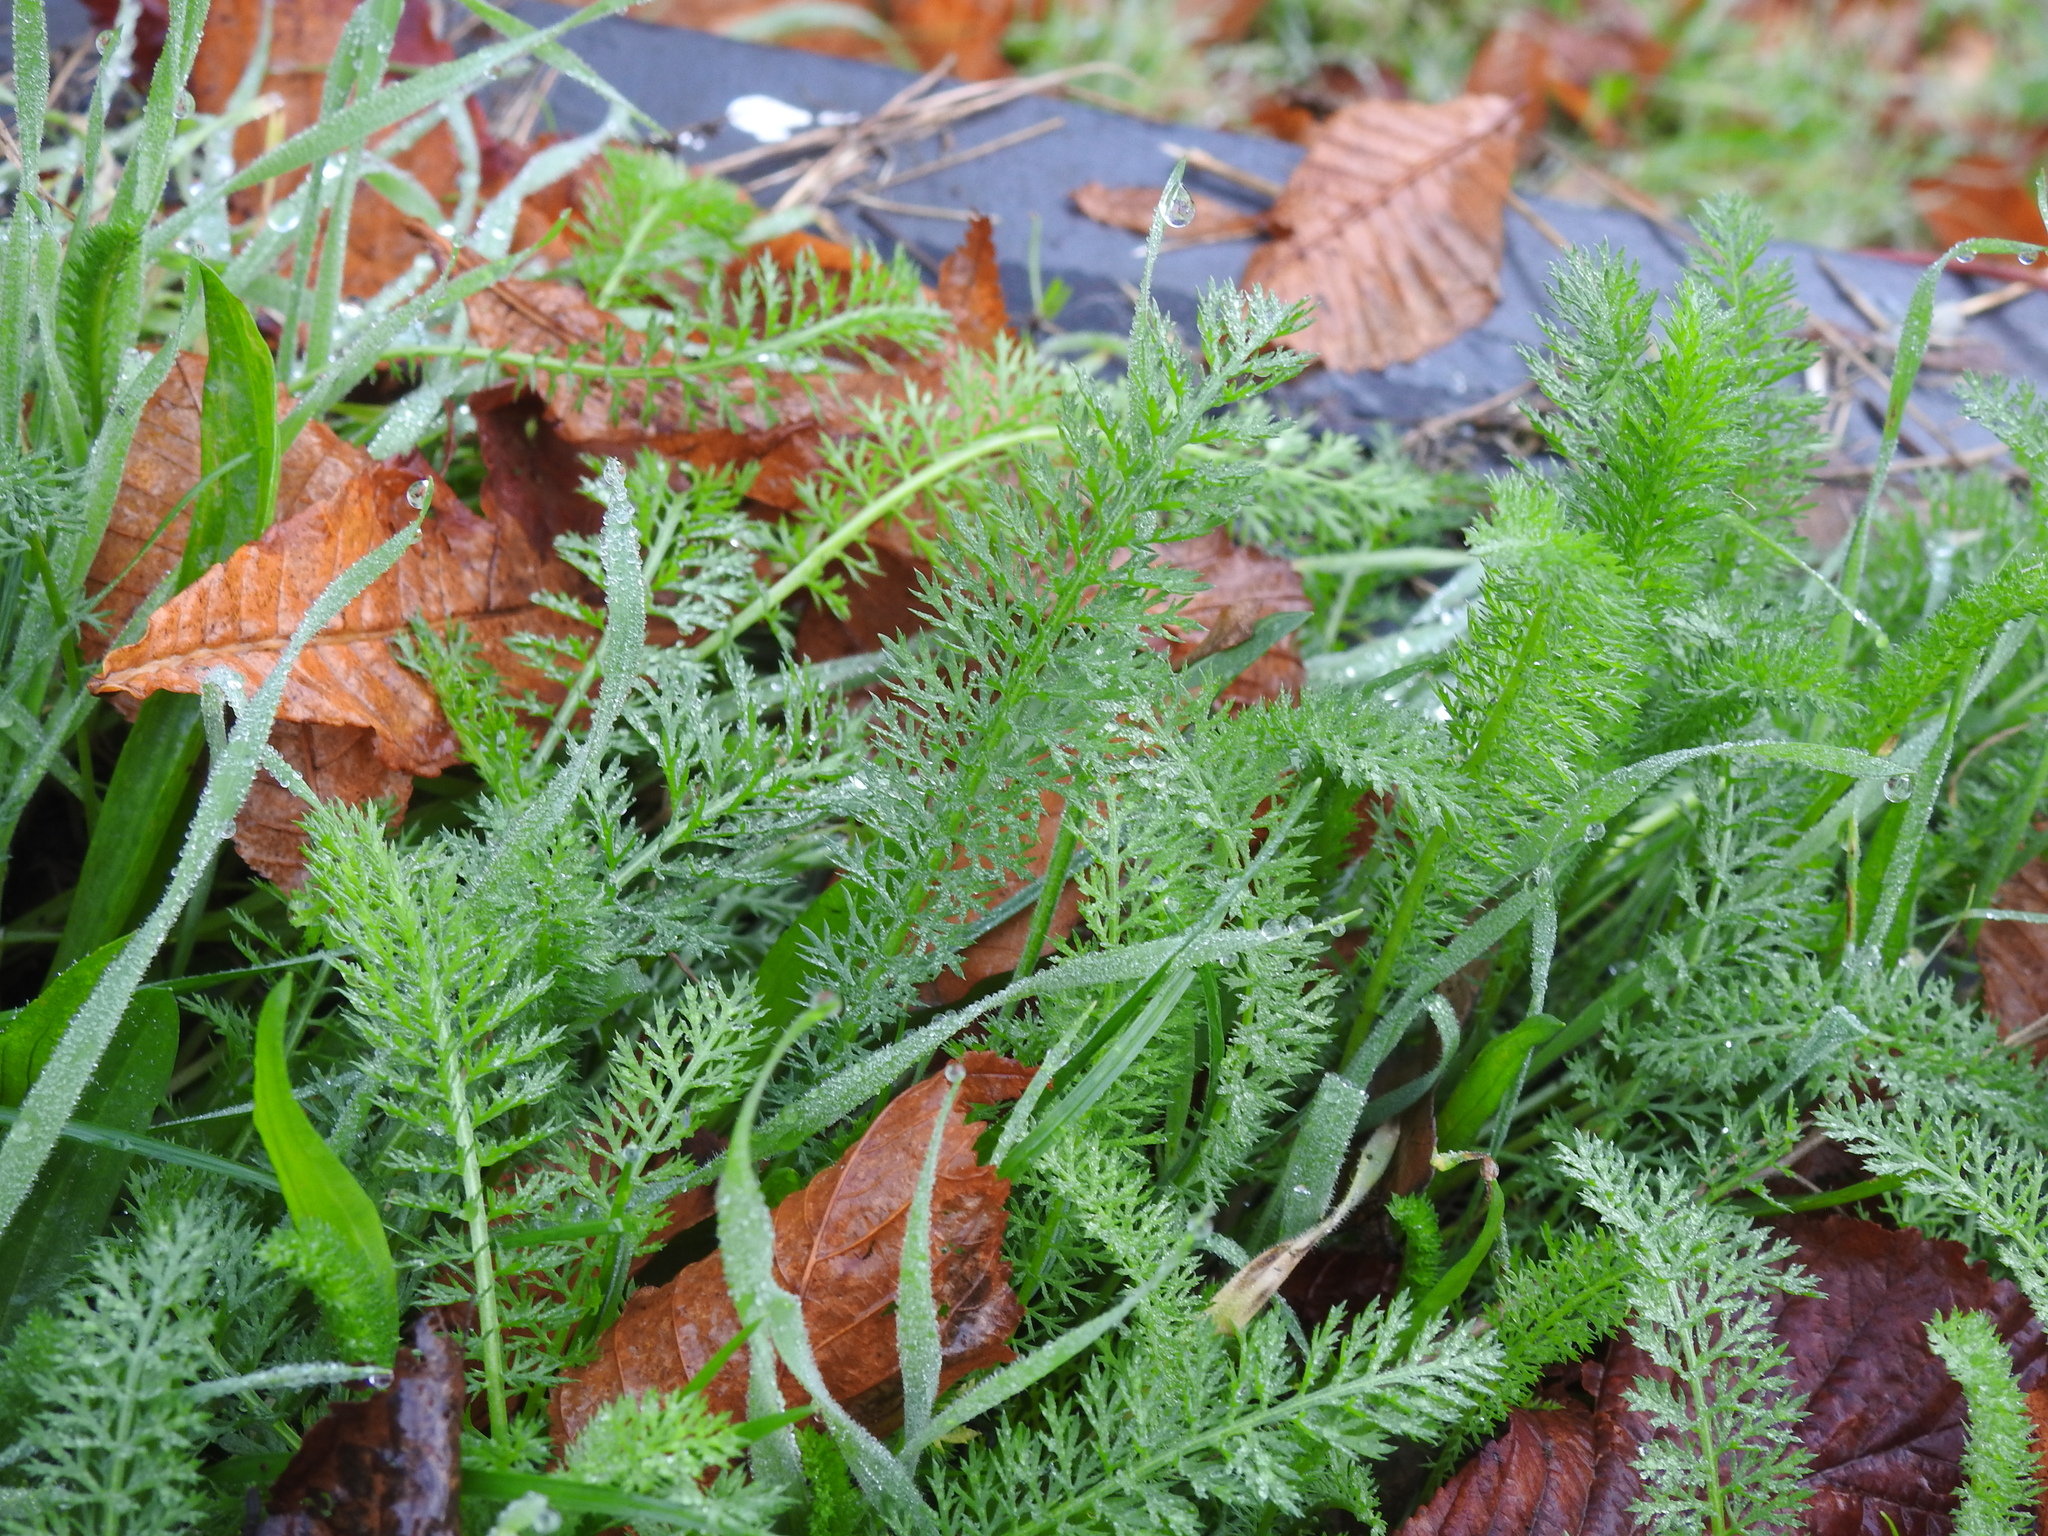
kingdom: Plantae
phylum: Tracheophyta
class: Magnoliopsida
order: Asterales
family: Asteraceae
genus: Achillea
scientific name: Achillea millefolium
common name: Yarrow
